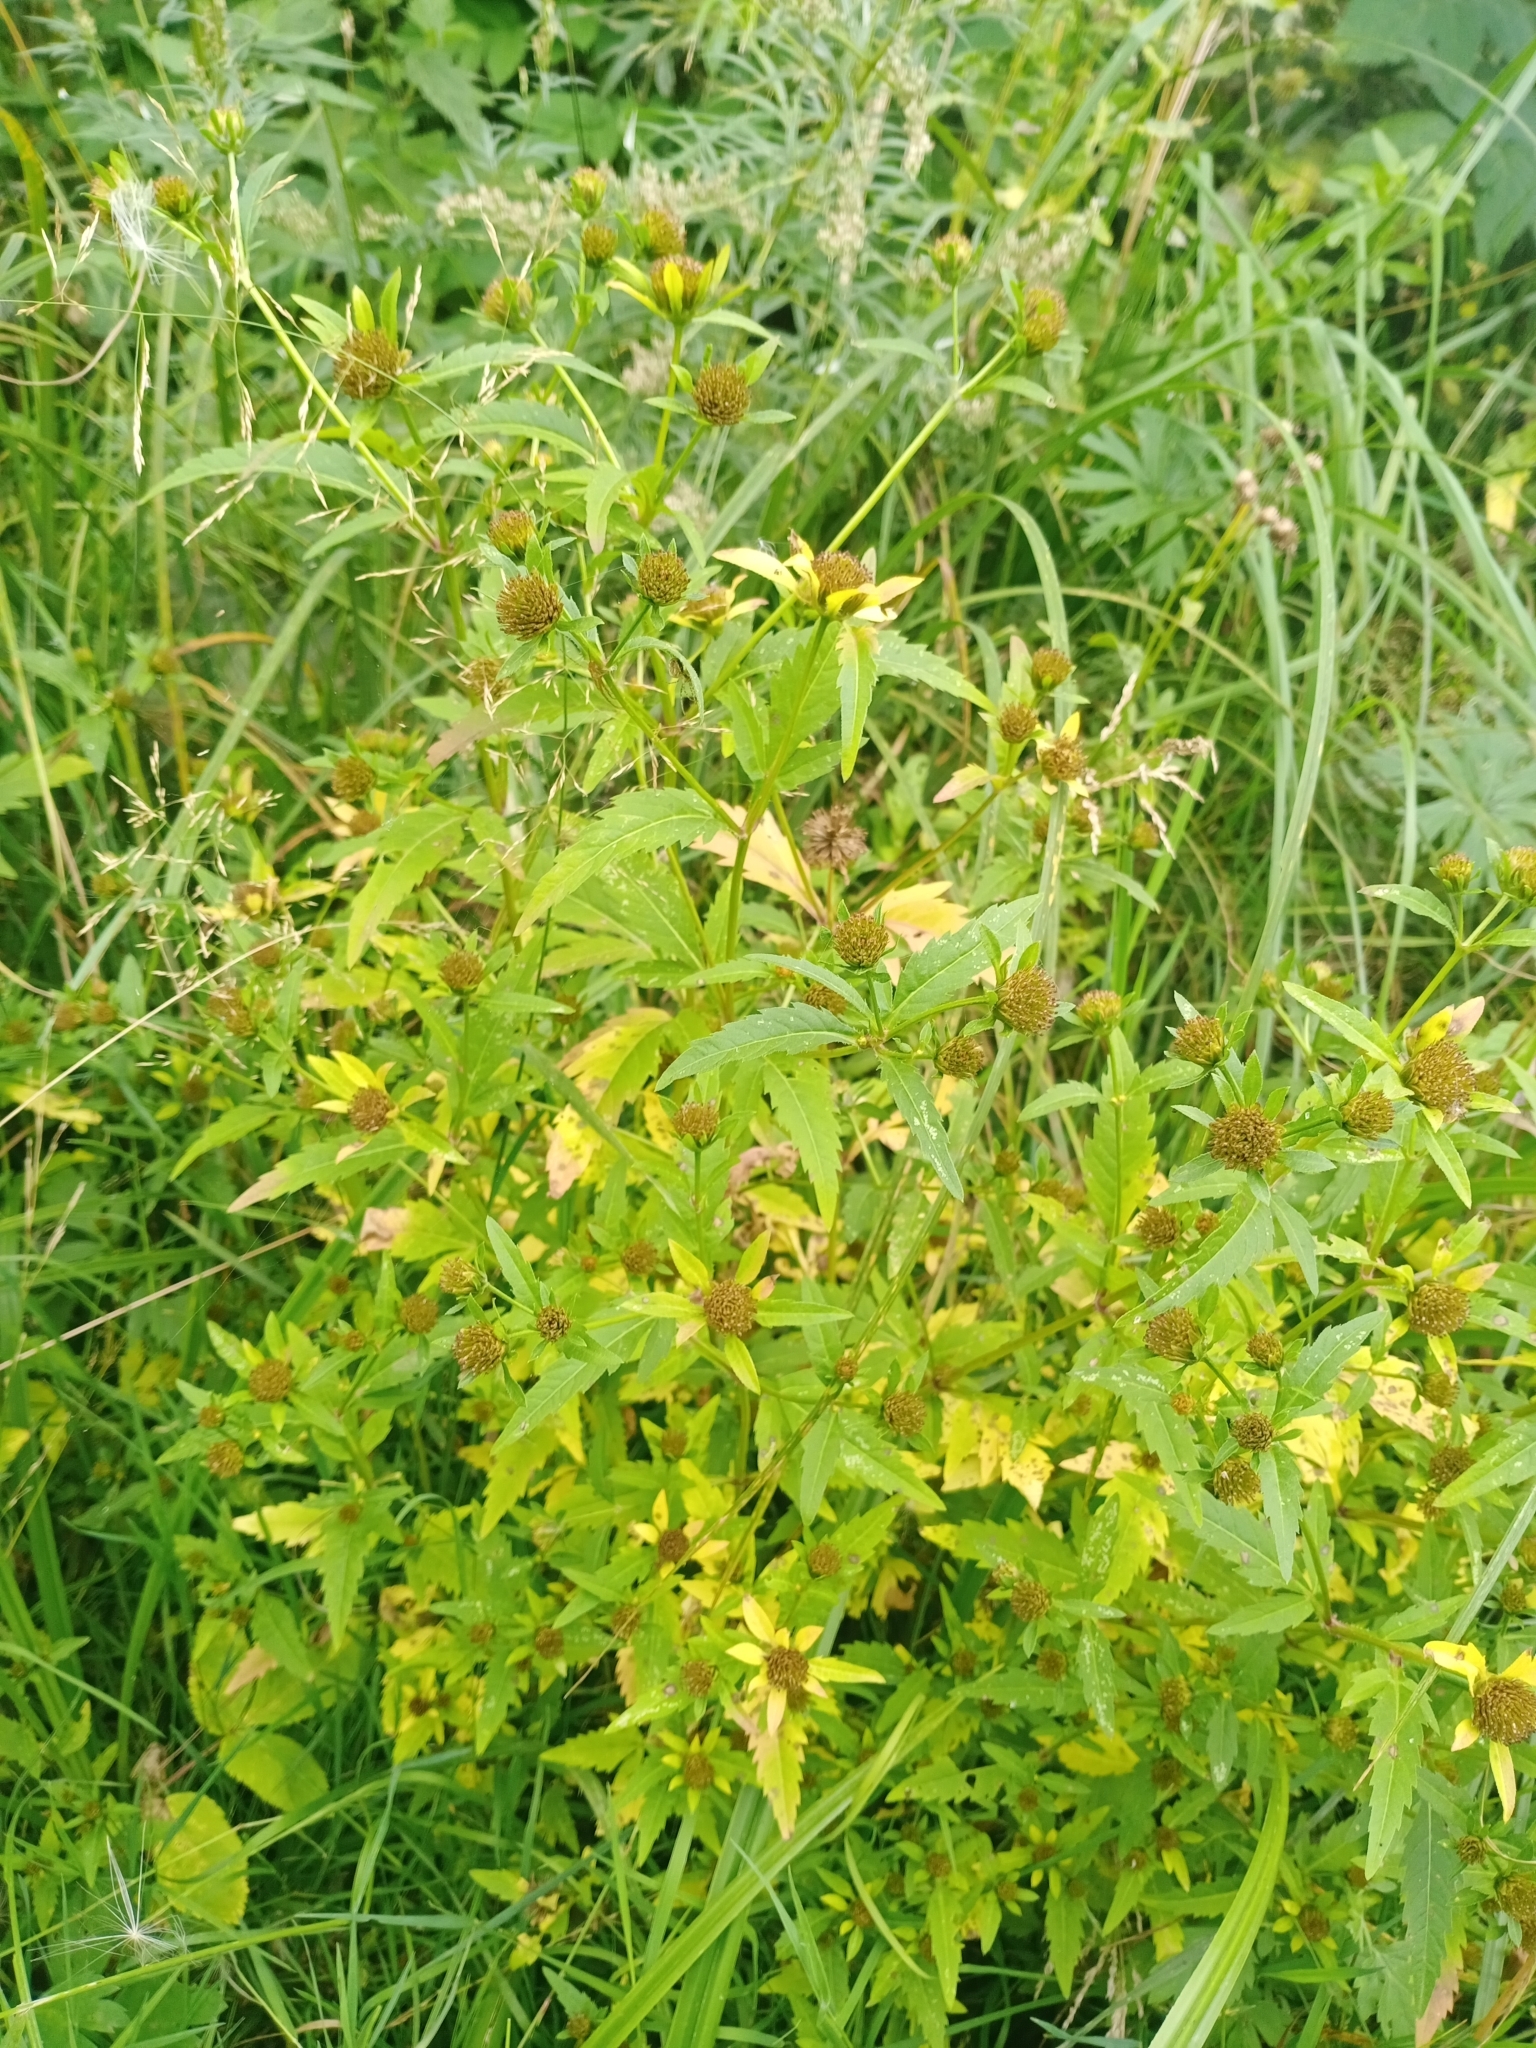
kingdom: Plantae
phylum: Tracheophyta
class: Magnoliopsida
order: Asterales
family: Asteraceae
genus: Bidens
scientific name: Bidens tripartita
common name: Trifid bur-marigold
